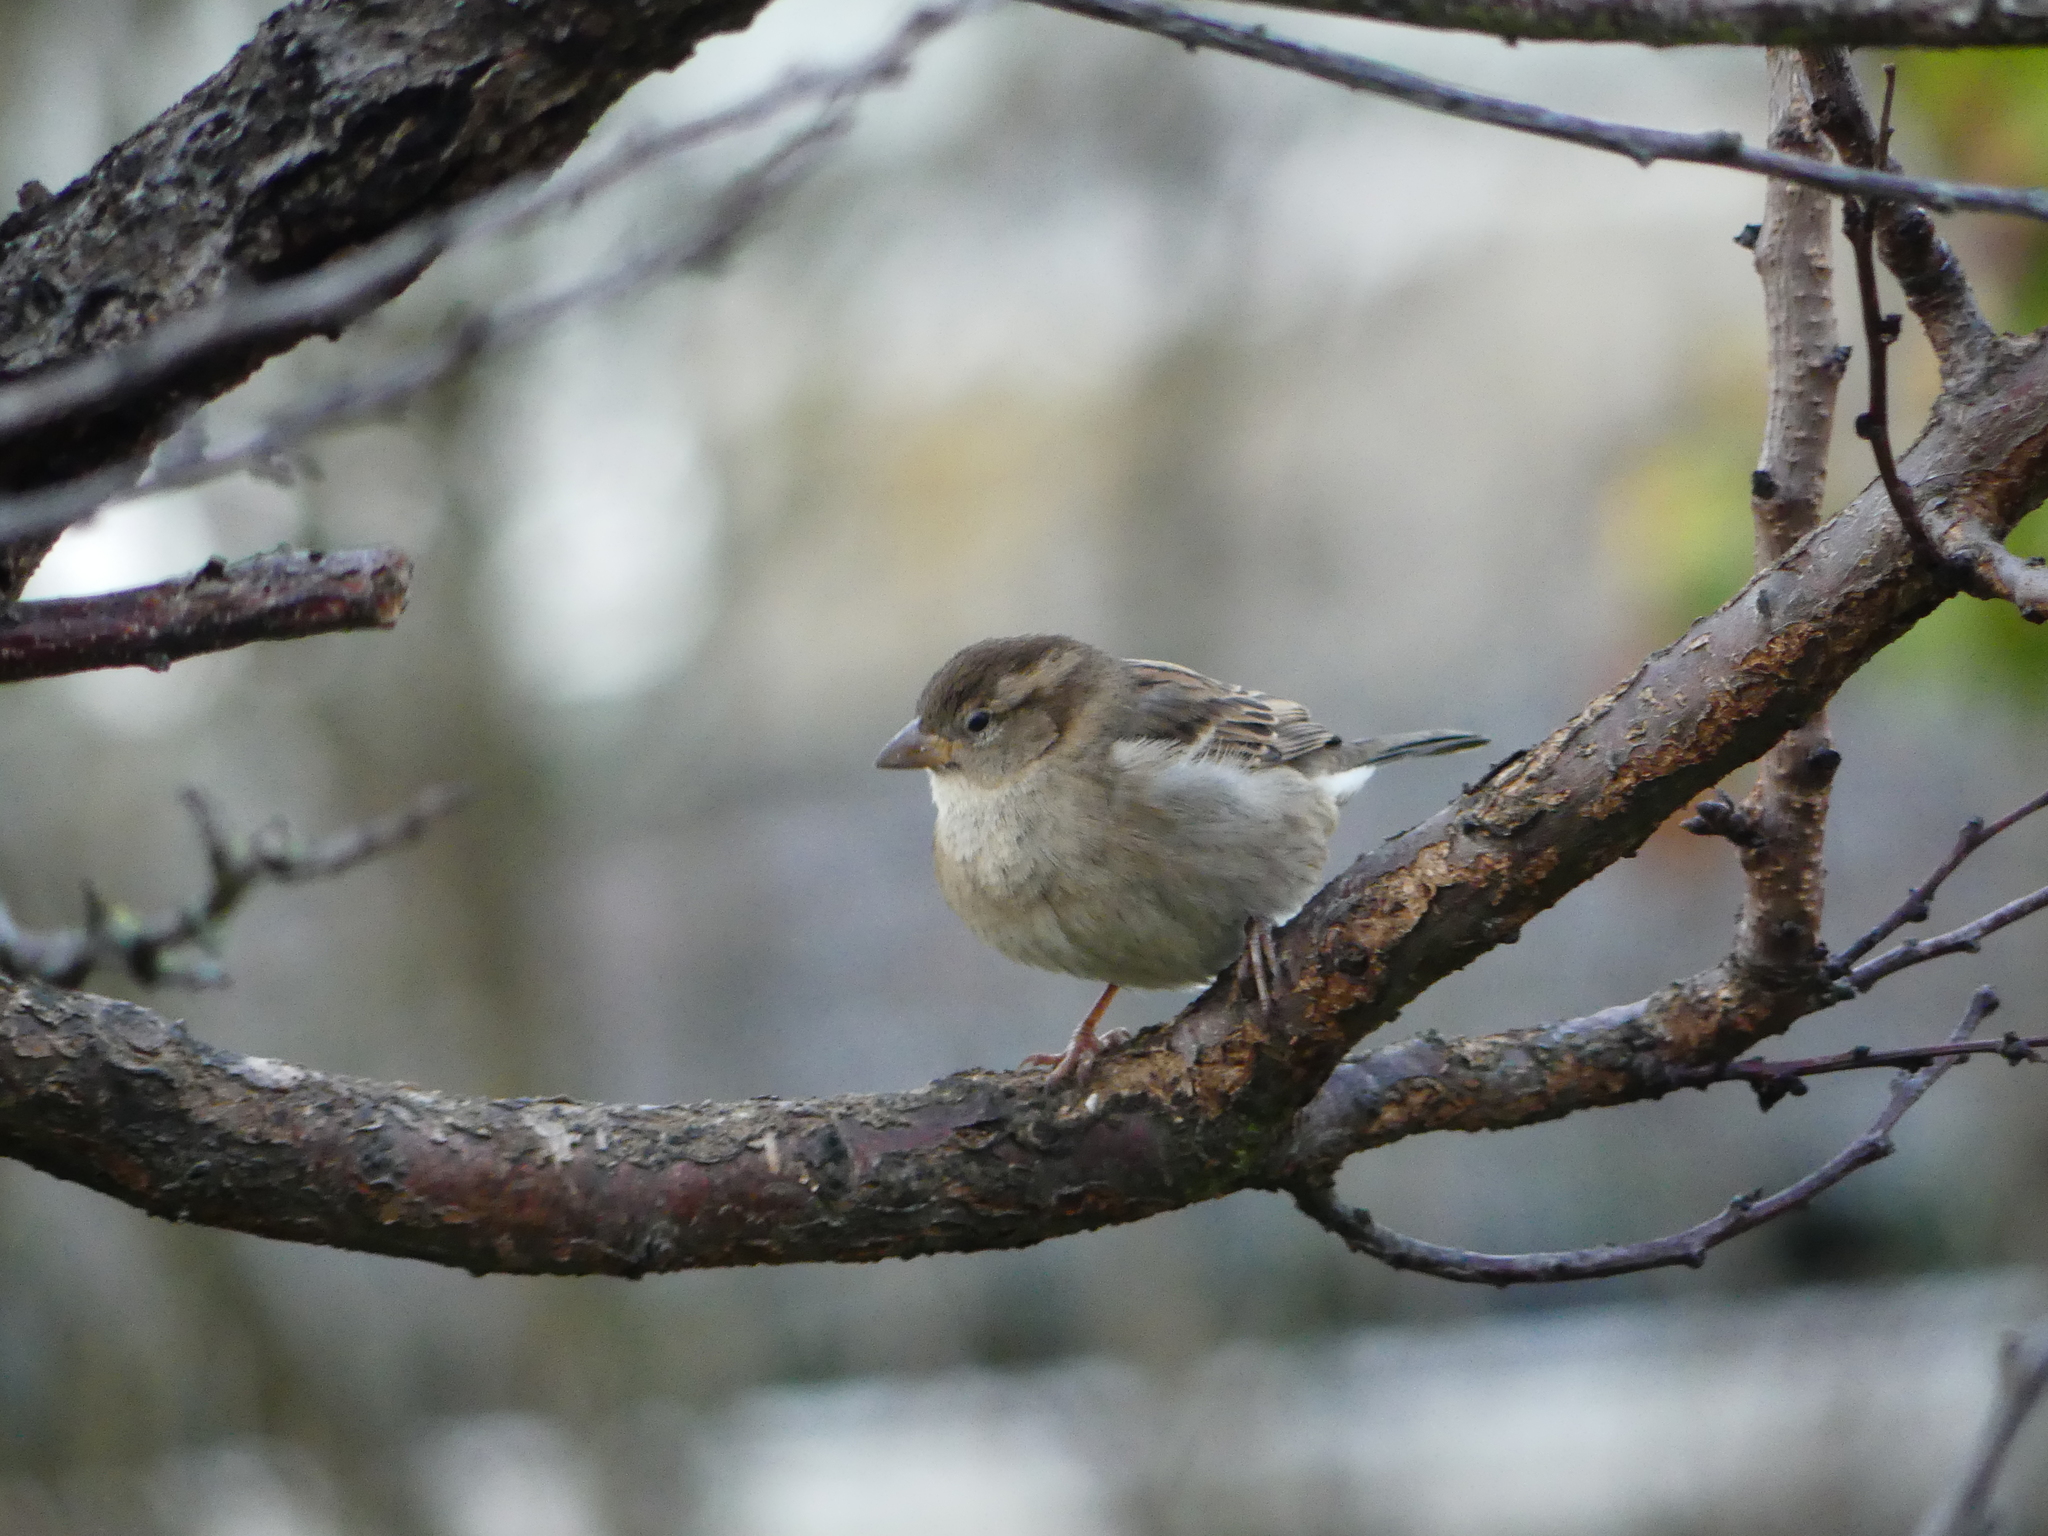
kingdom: Animalia
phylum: Chordata
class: Aves
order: Passeriformes
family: Passeridae
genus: Passer
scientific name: Passer domesticus
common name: House sparrow
